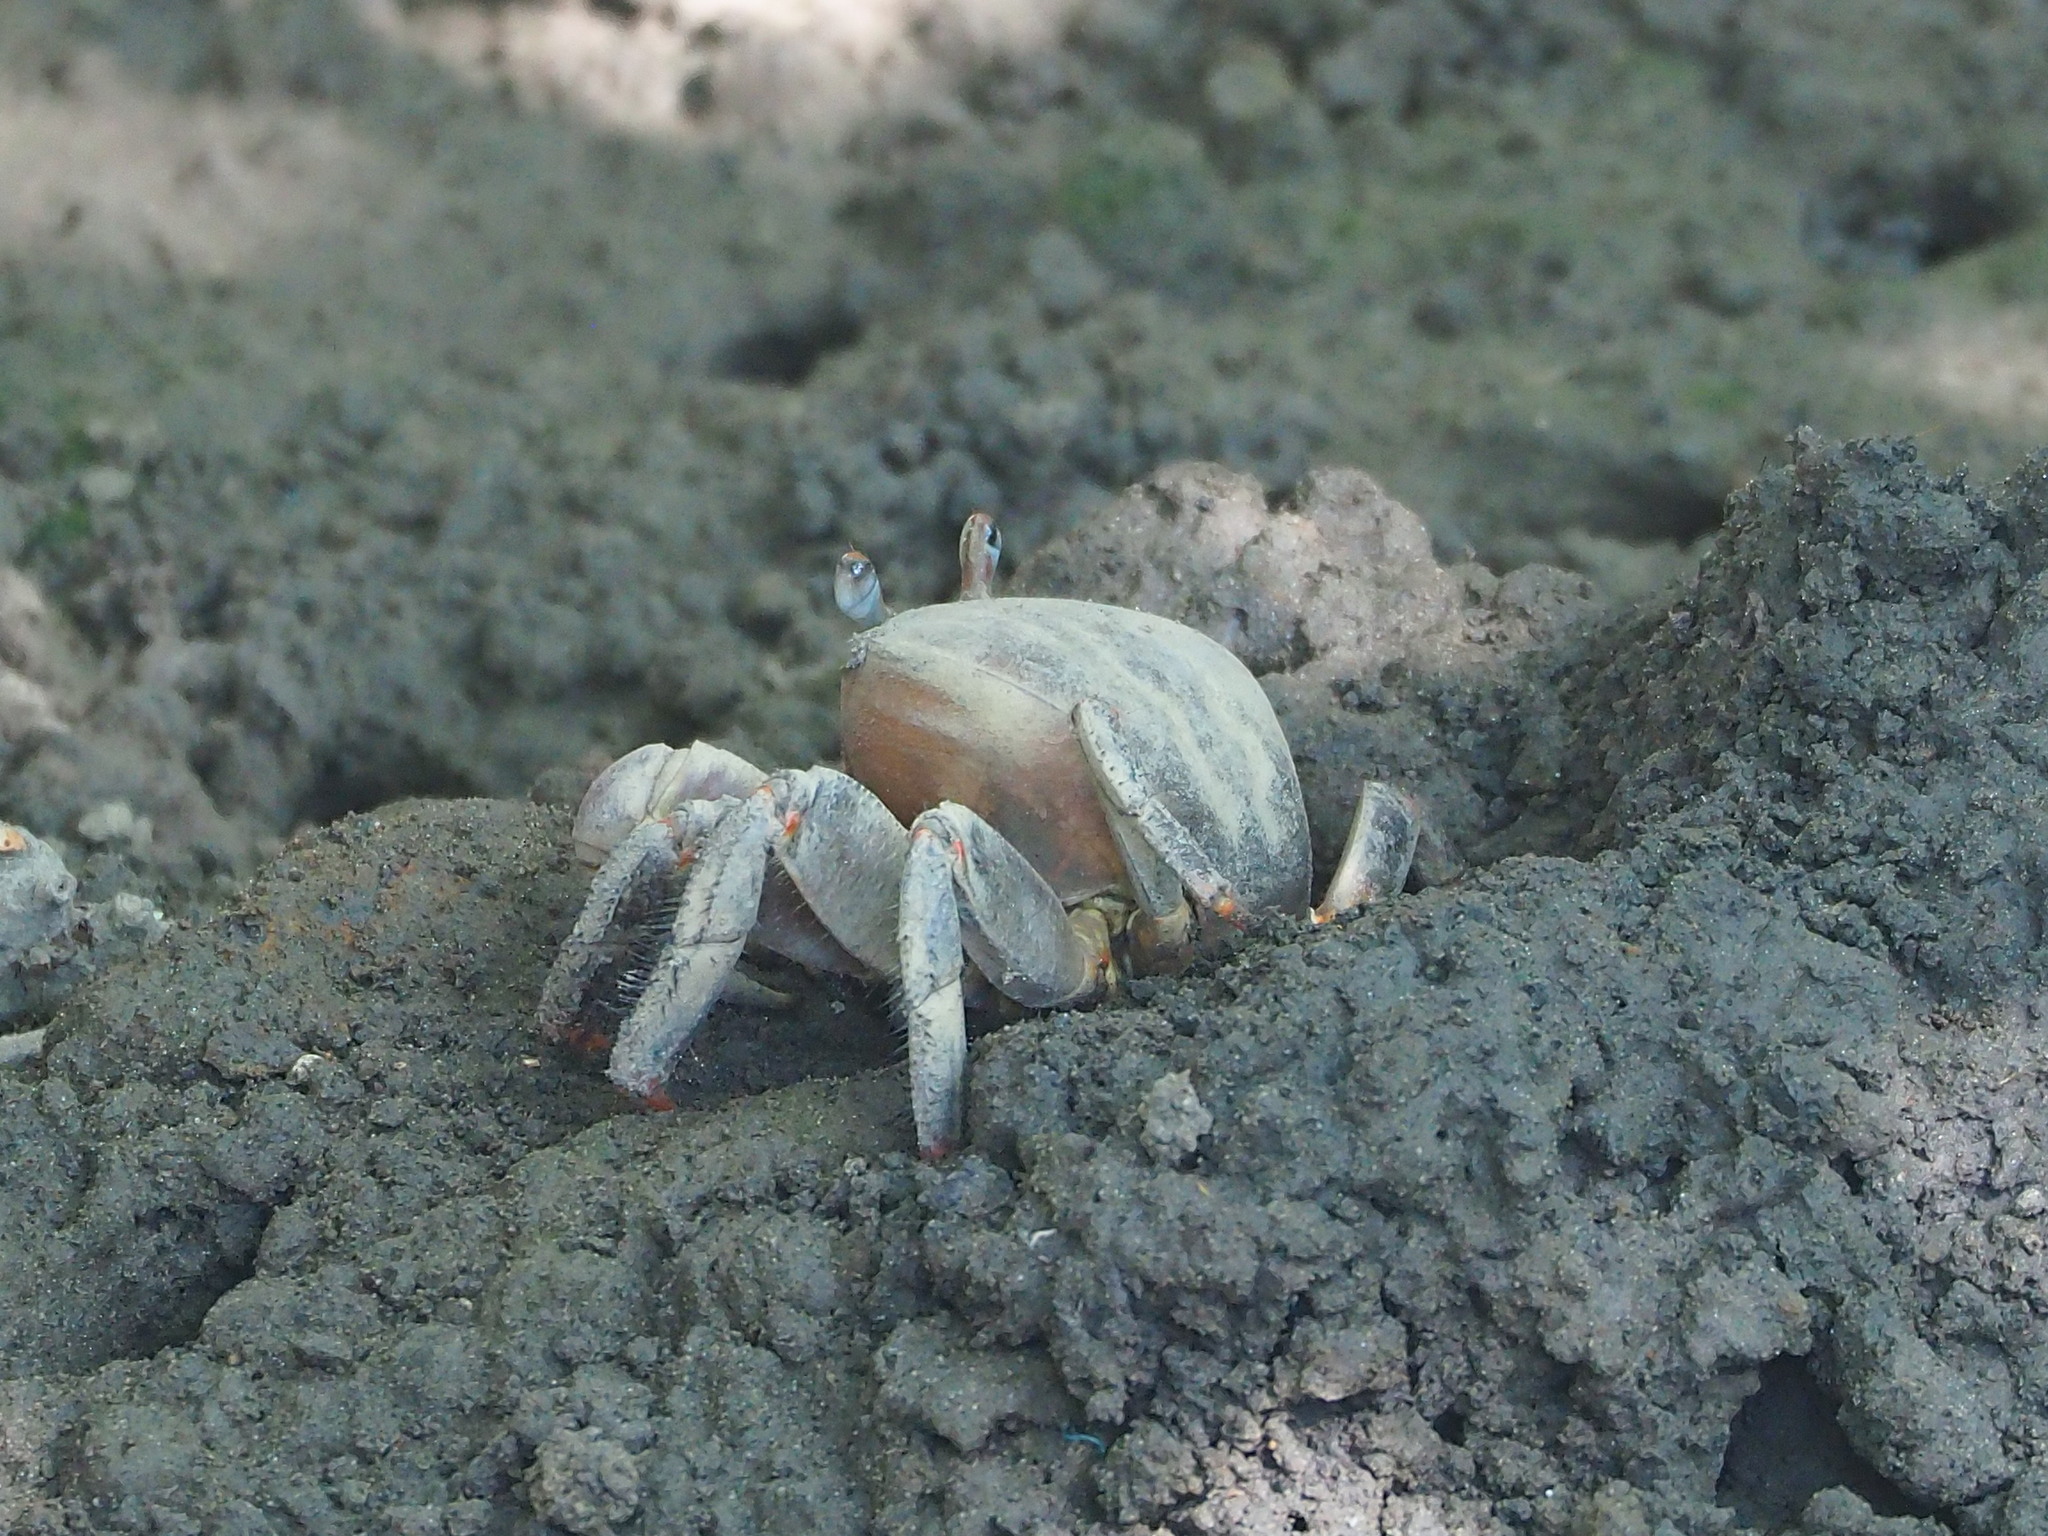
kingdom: Animalia
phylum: Arthropoda
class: Malacostraca
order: Decapoda
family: Gecarcinidae
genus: Cardisoma
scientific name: Cardisoma carnifex
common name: Brown land crab
